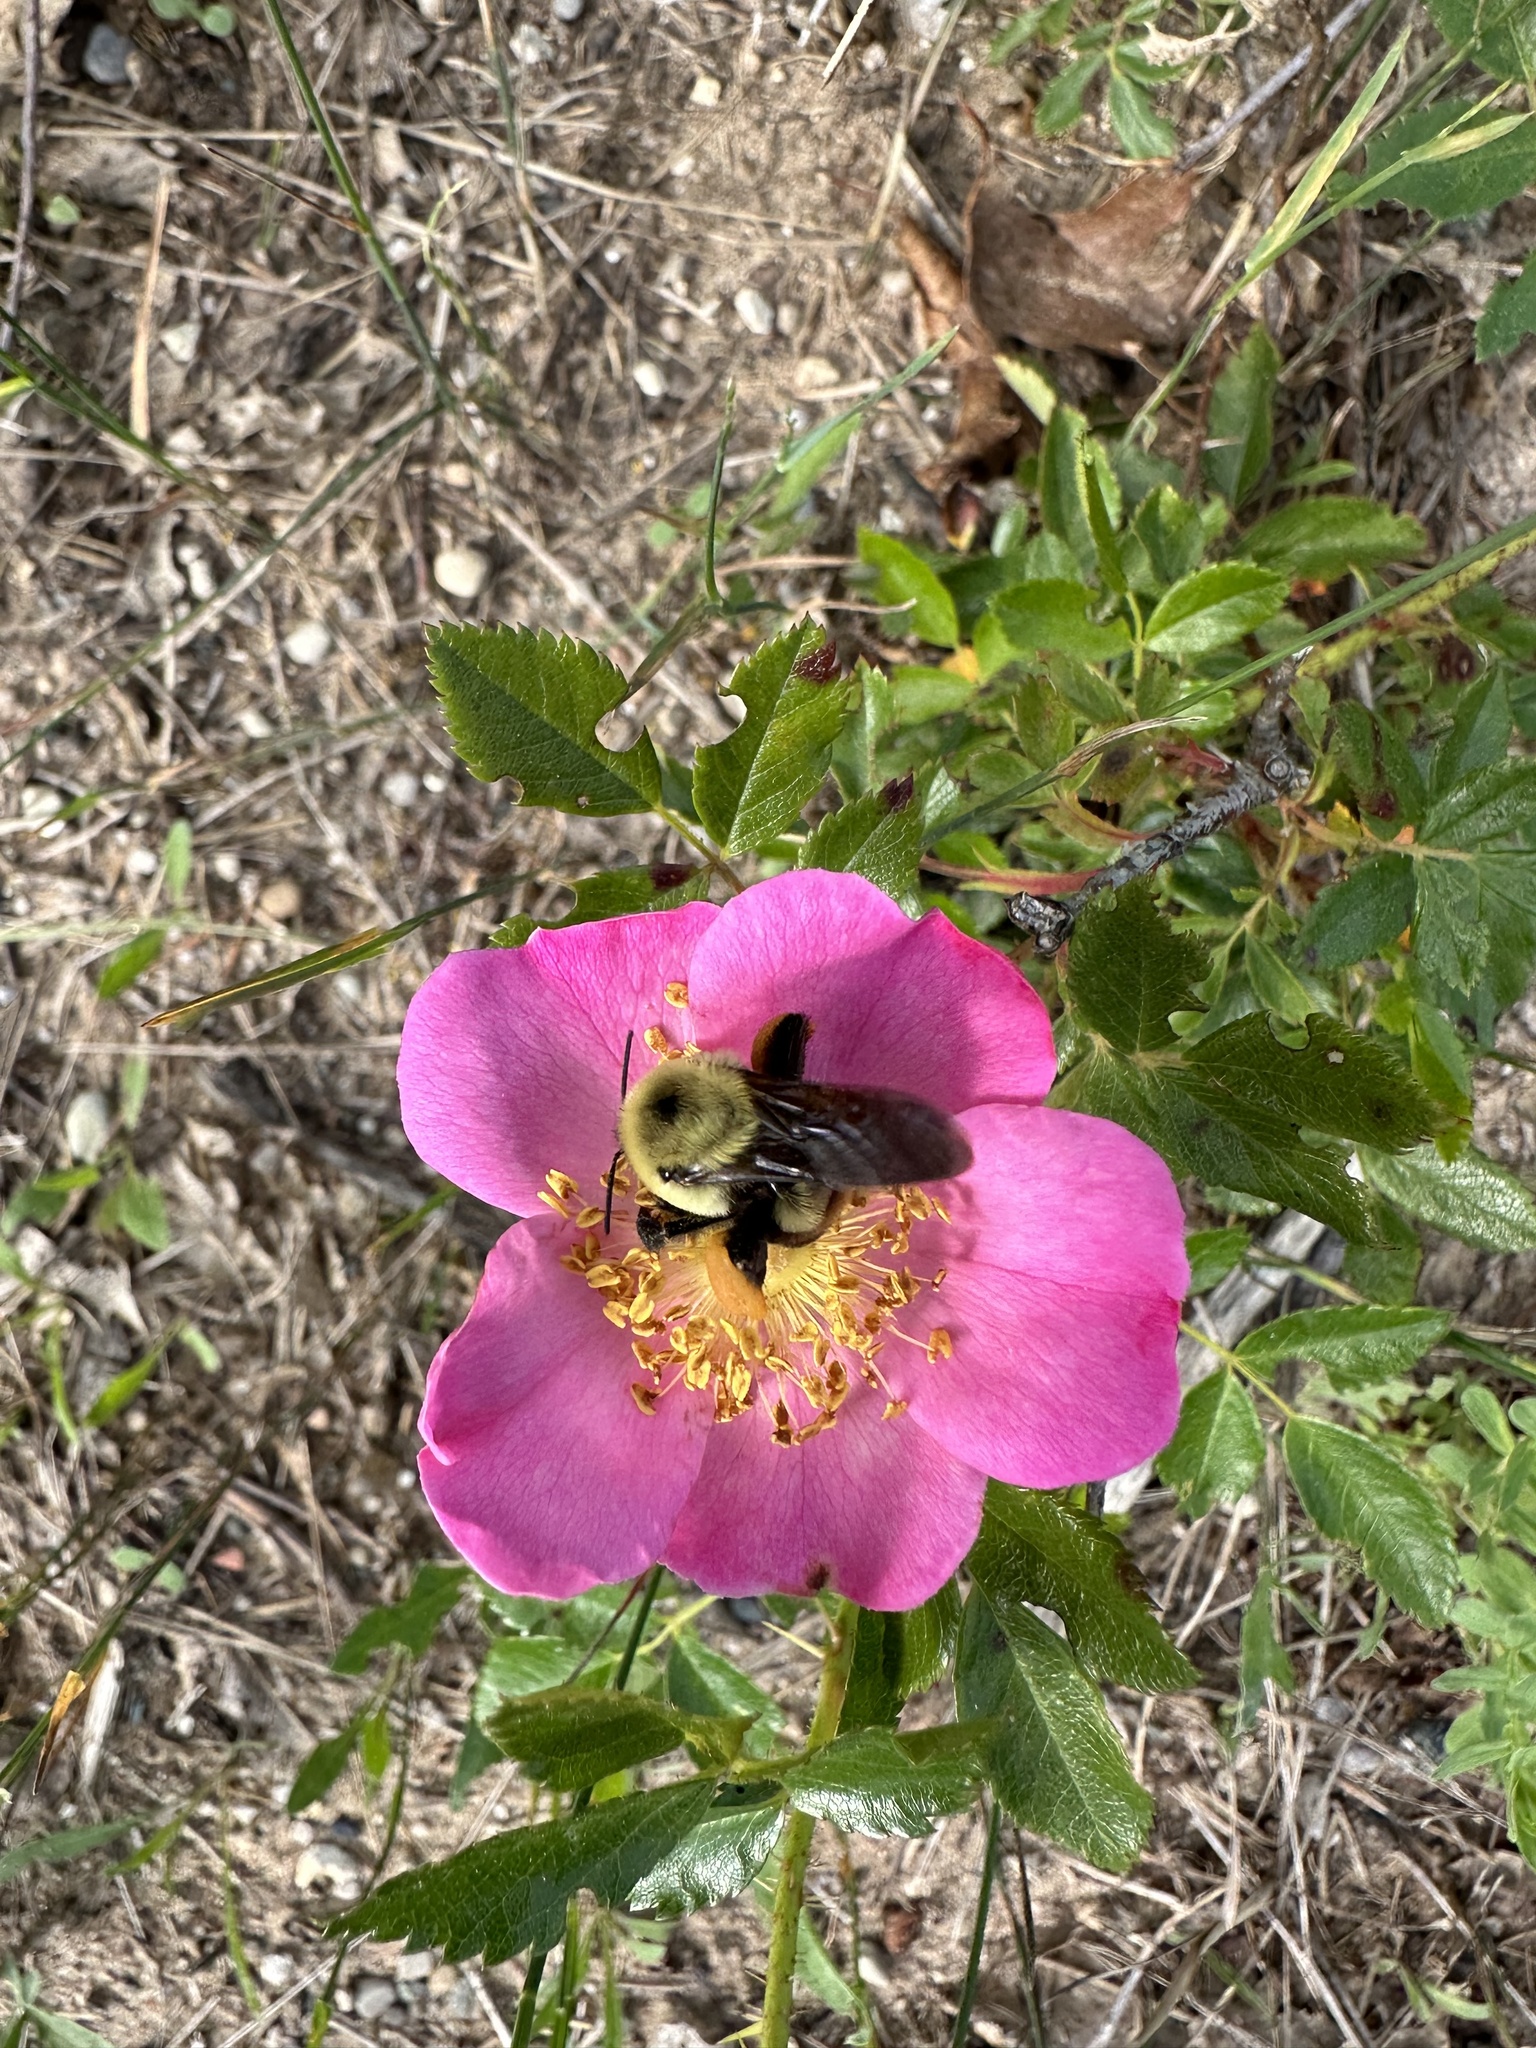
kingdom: Animalia
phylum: Arthropoda
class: Insecta
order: Hymenoptera
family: Apidae
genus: Bombus
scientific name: Bombus griseocollis
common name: Brown-belted bumble bee
